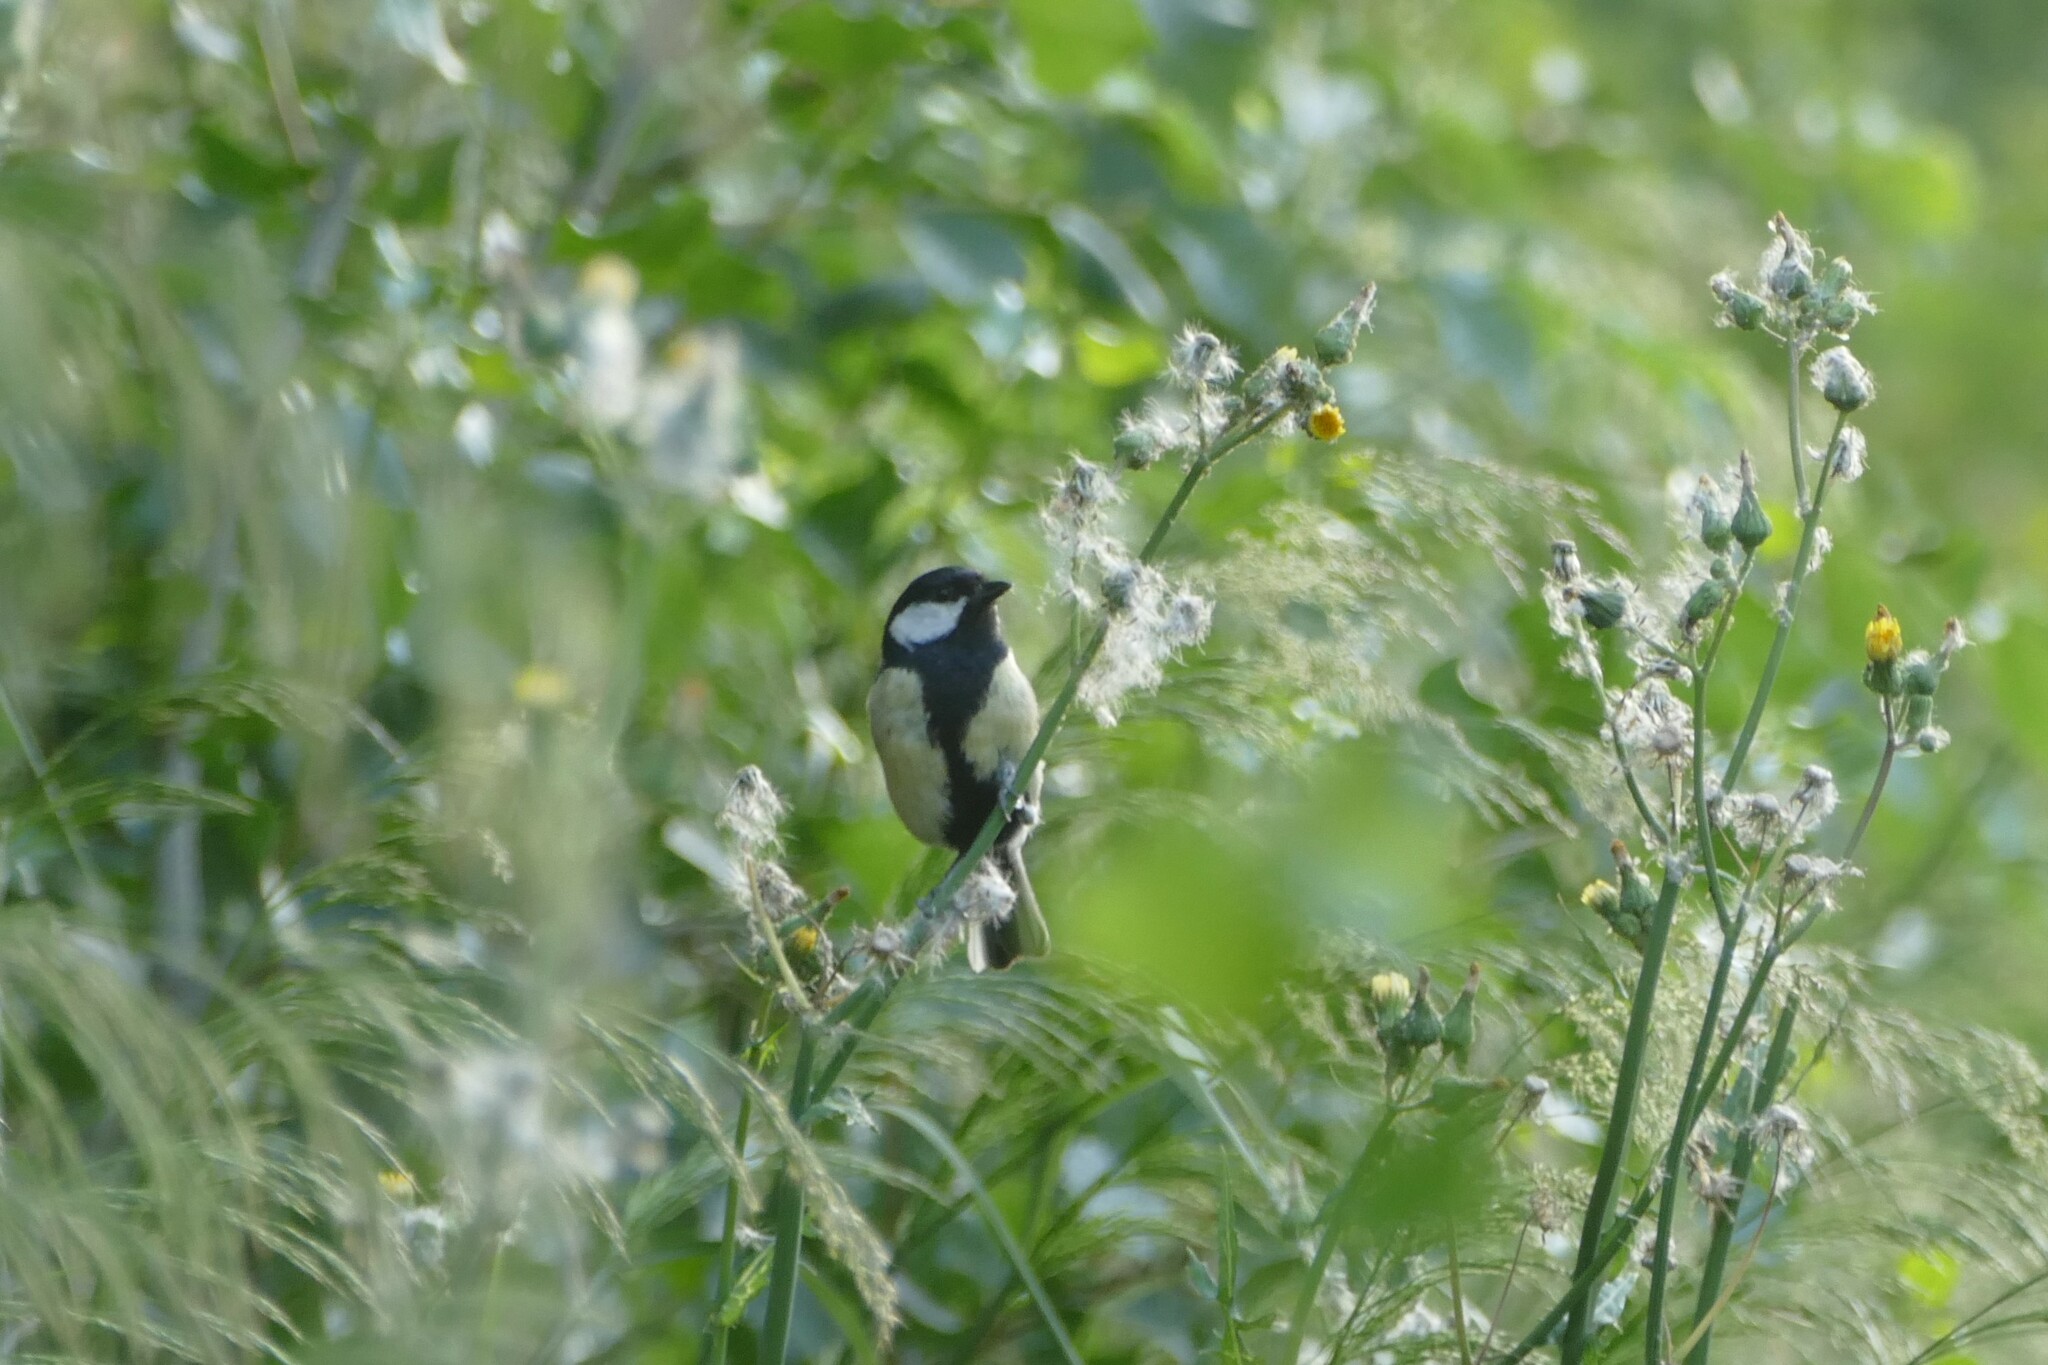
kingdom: Animalia
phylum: Chordata
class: Aves
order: Passeriformes
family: Paridae
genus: Parus
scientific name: Parus major
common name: Great tit
